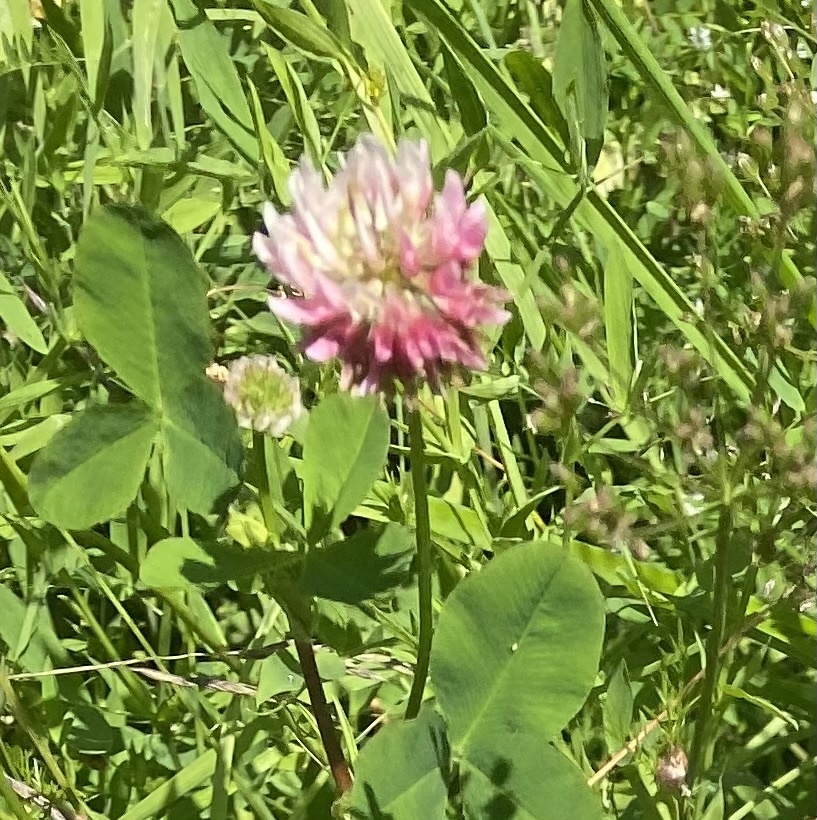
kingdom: Plantae
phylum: Tracheophyta
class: Magnoliopsida
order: Fabales
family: Fabaceae
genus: Trifolium
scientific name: Trifolium hybridum
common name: Alsike clover
